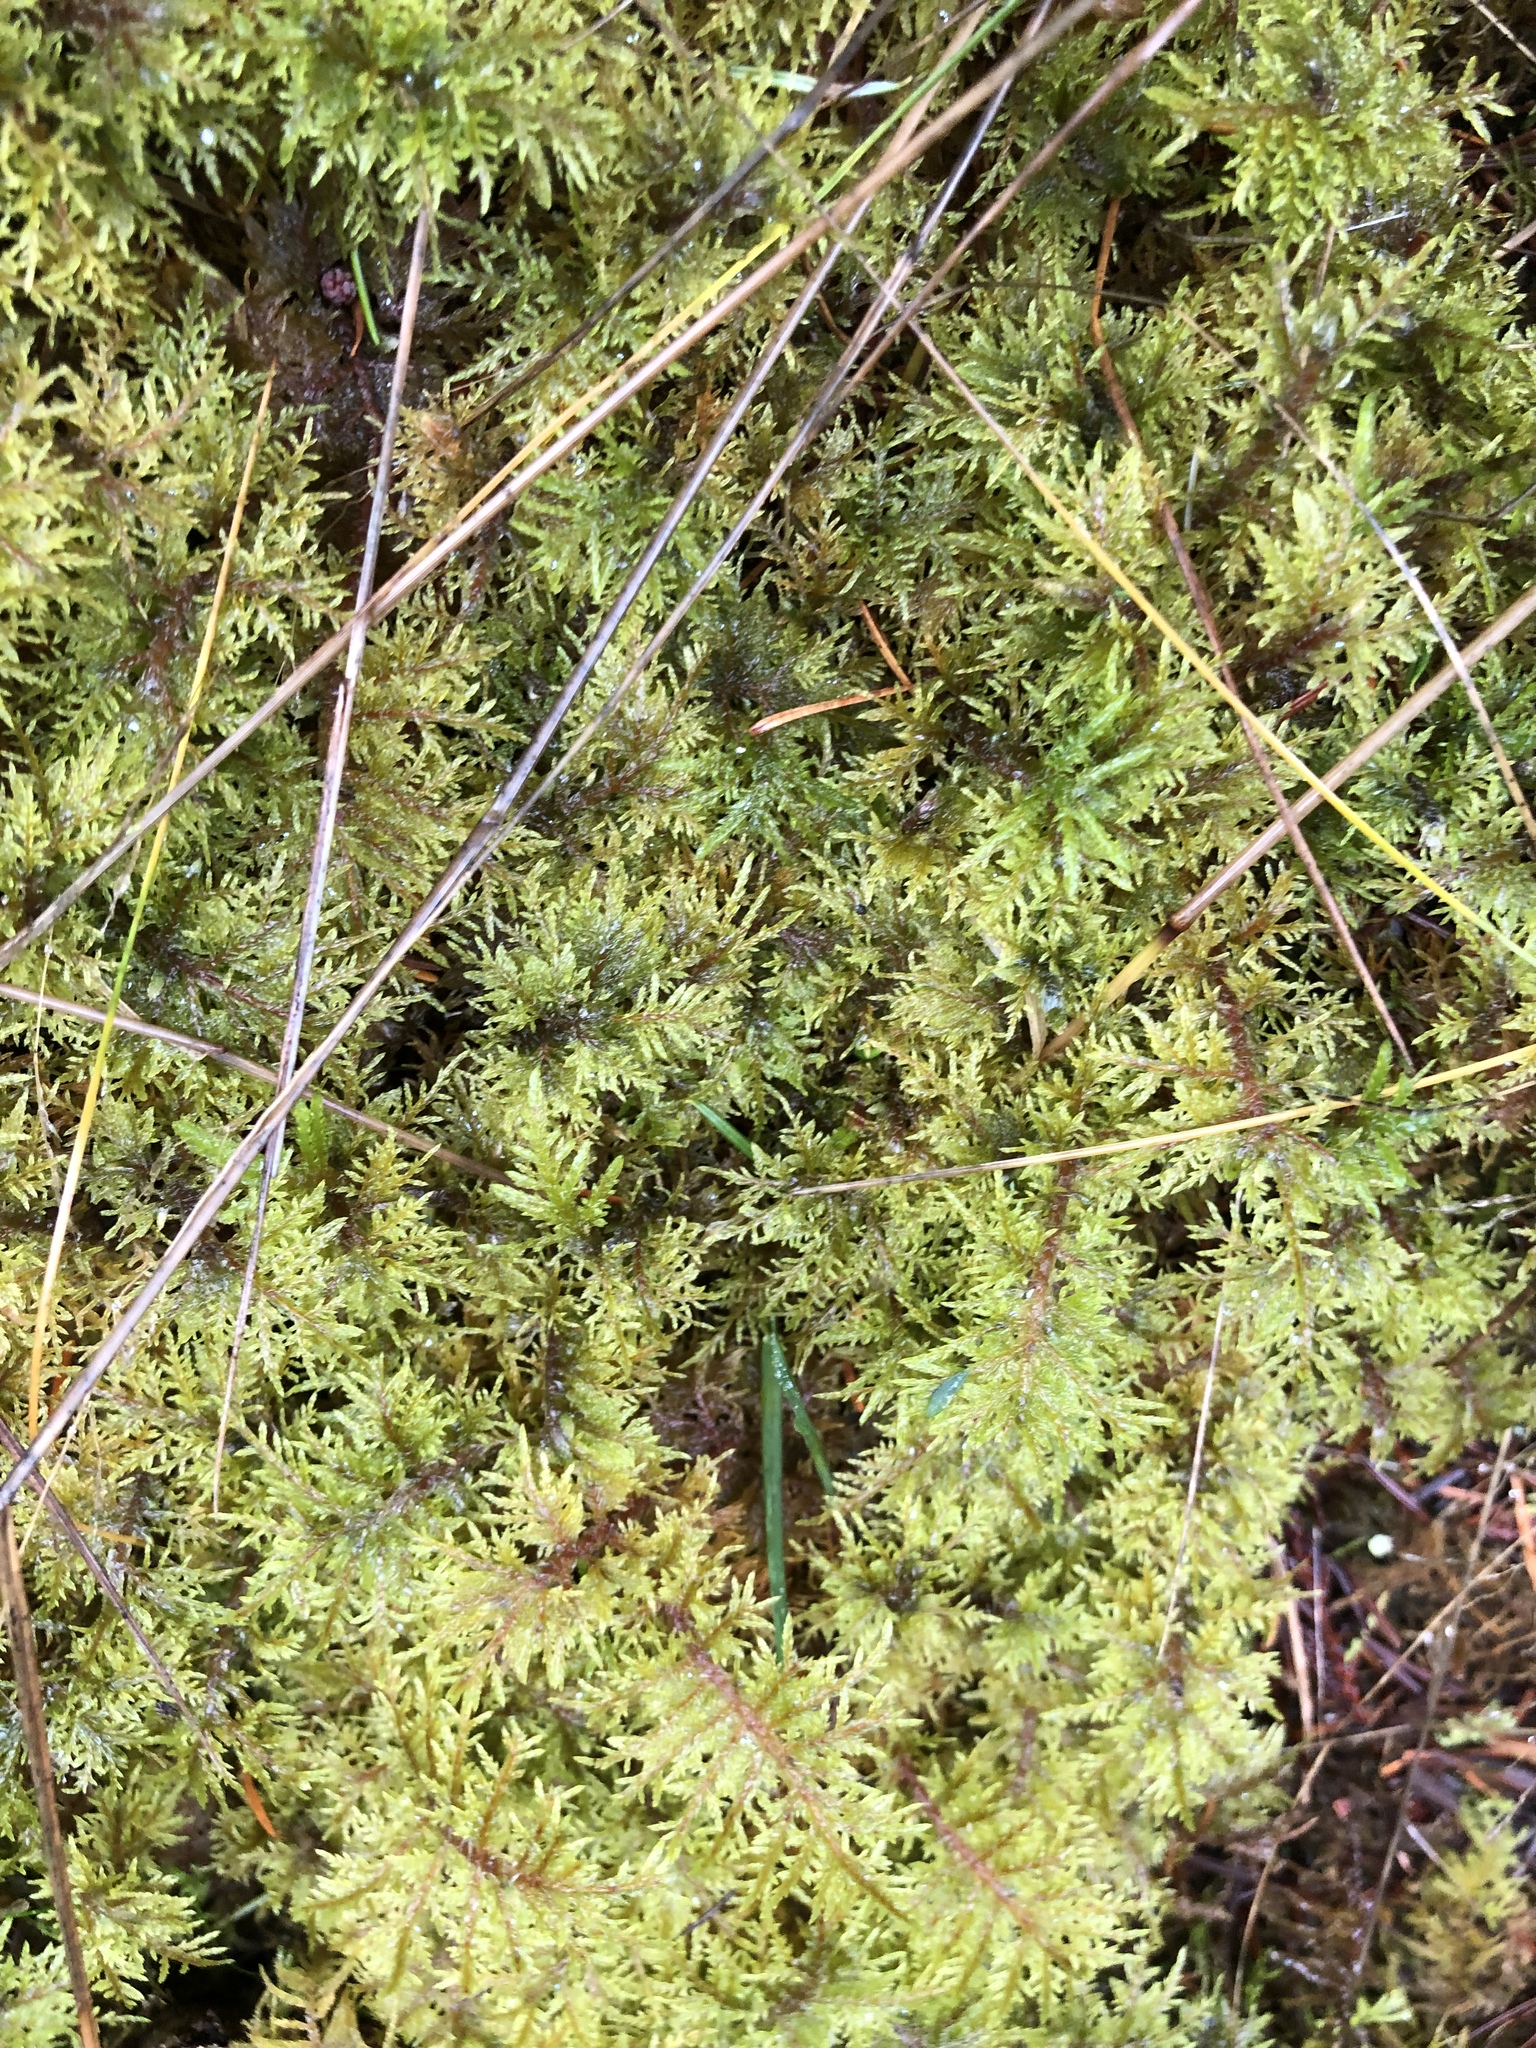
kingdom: Plantae
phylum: Bryophyta
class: Bryopsida
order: Hypnales
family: Hylocomiaceae
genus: Hylocomium
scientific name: Hylocomium splendens
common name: Stairstep moss
